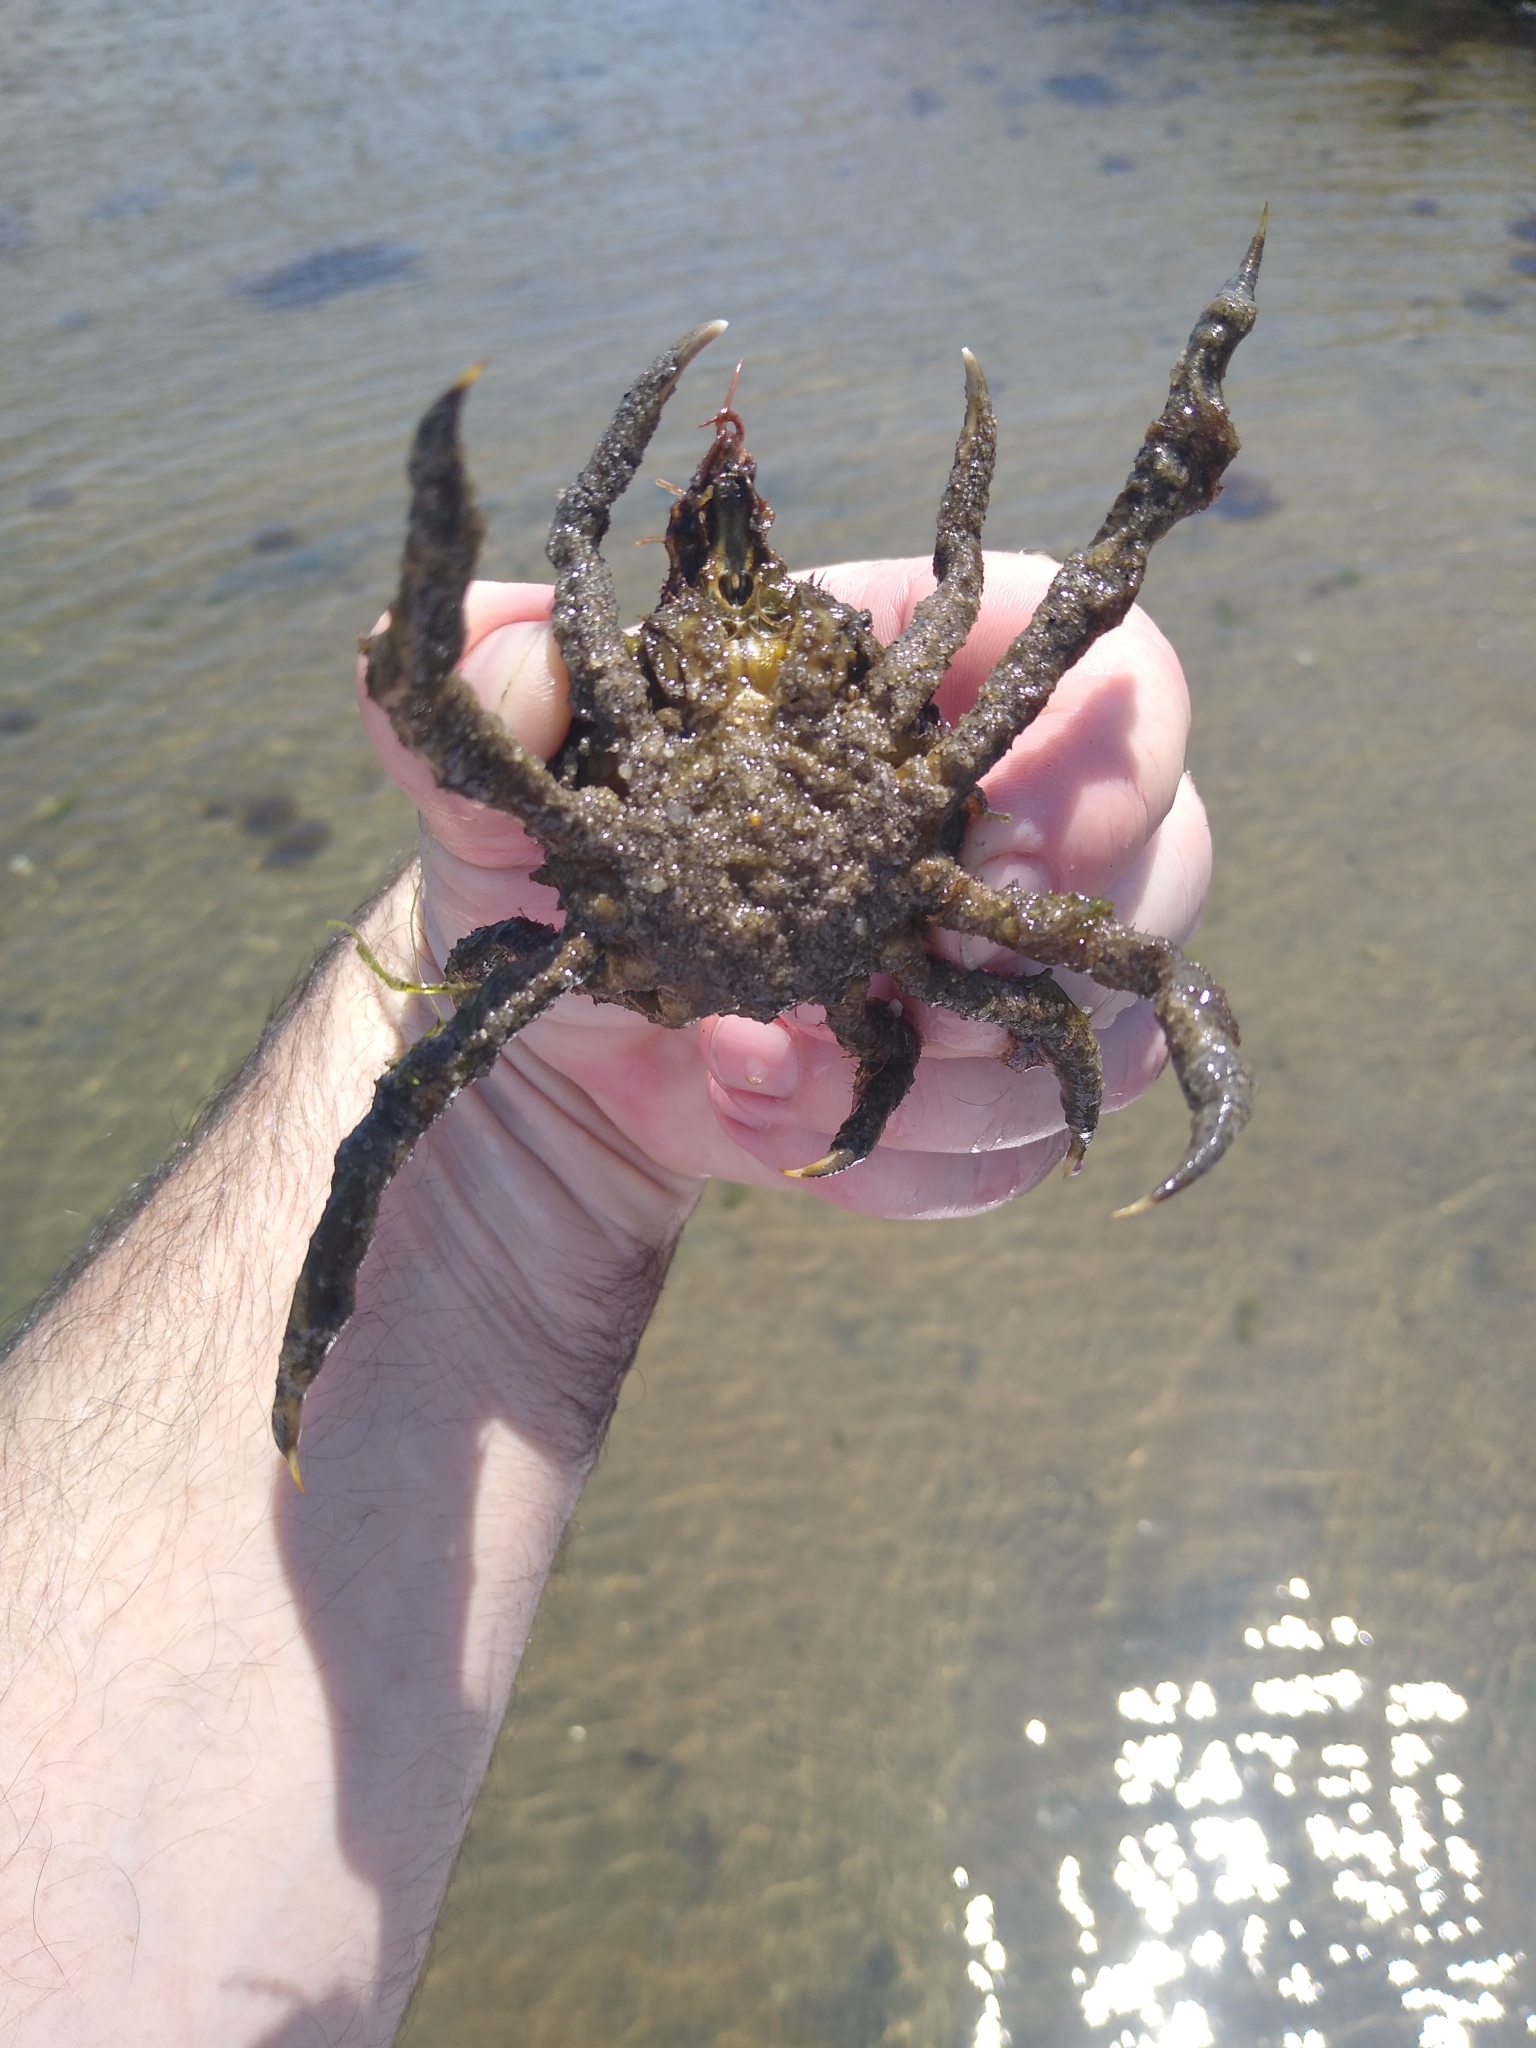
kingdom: Animalia
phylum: Arthropoda
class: Malacostraca
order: Decapoda
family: Epialtidae
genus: Libinia
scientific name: Libinia emarginata
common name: Common spider crab
